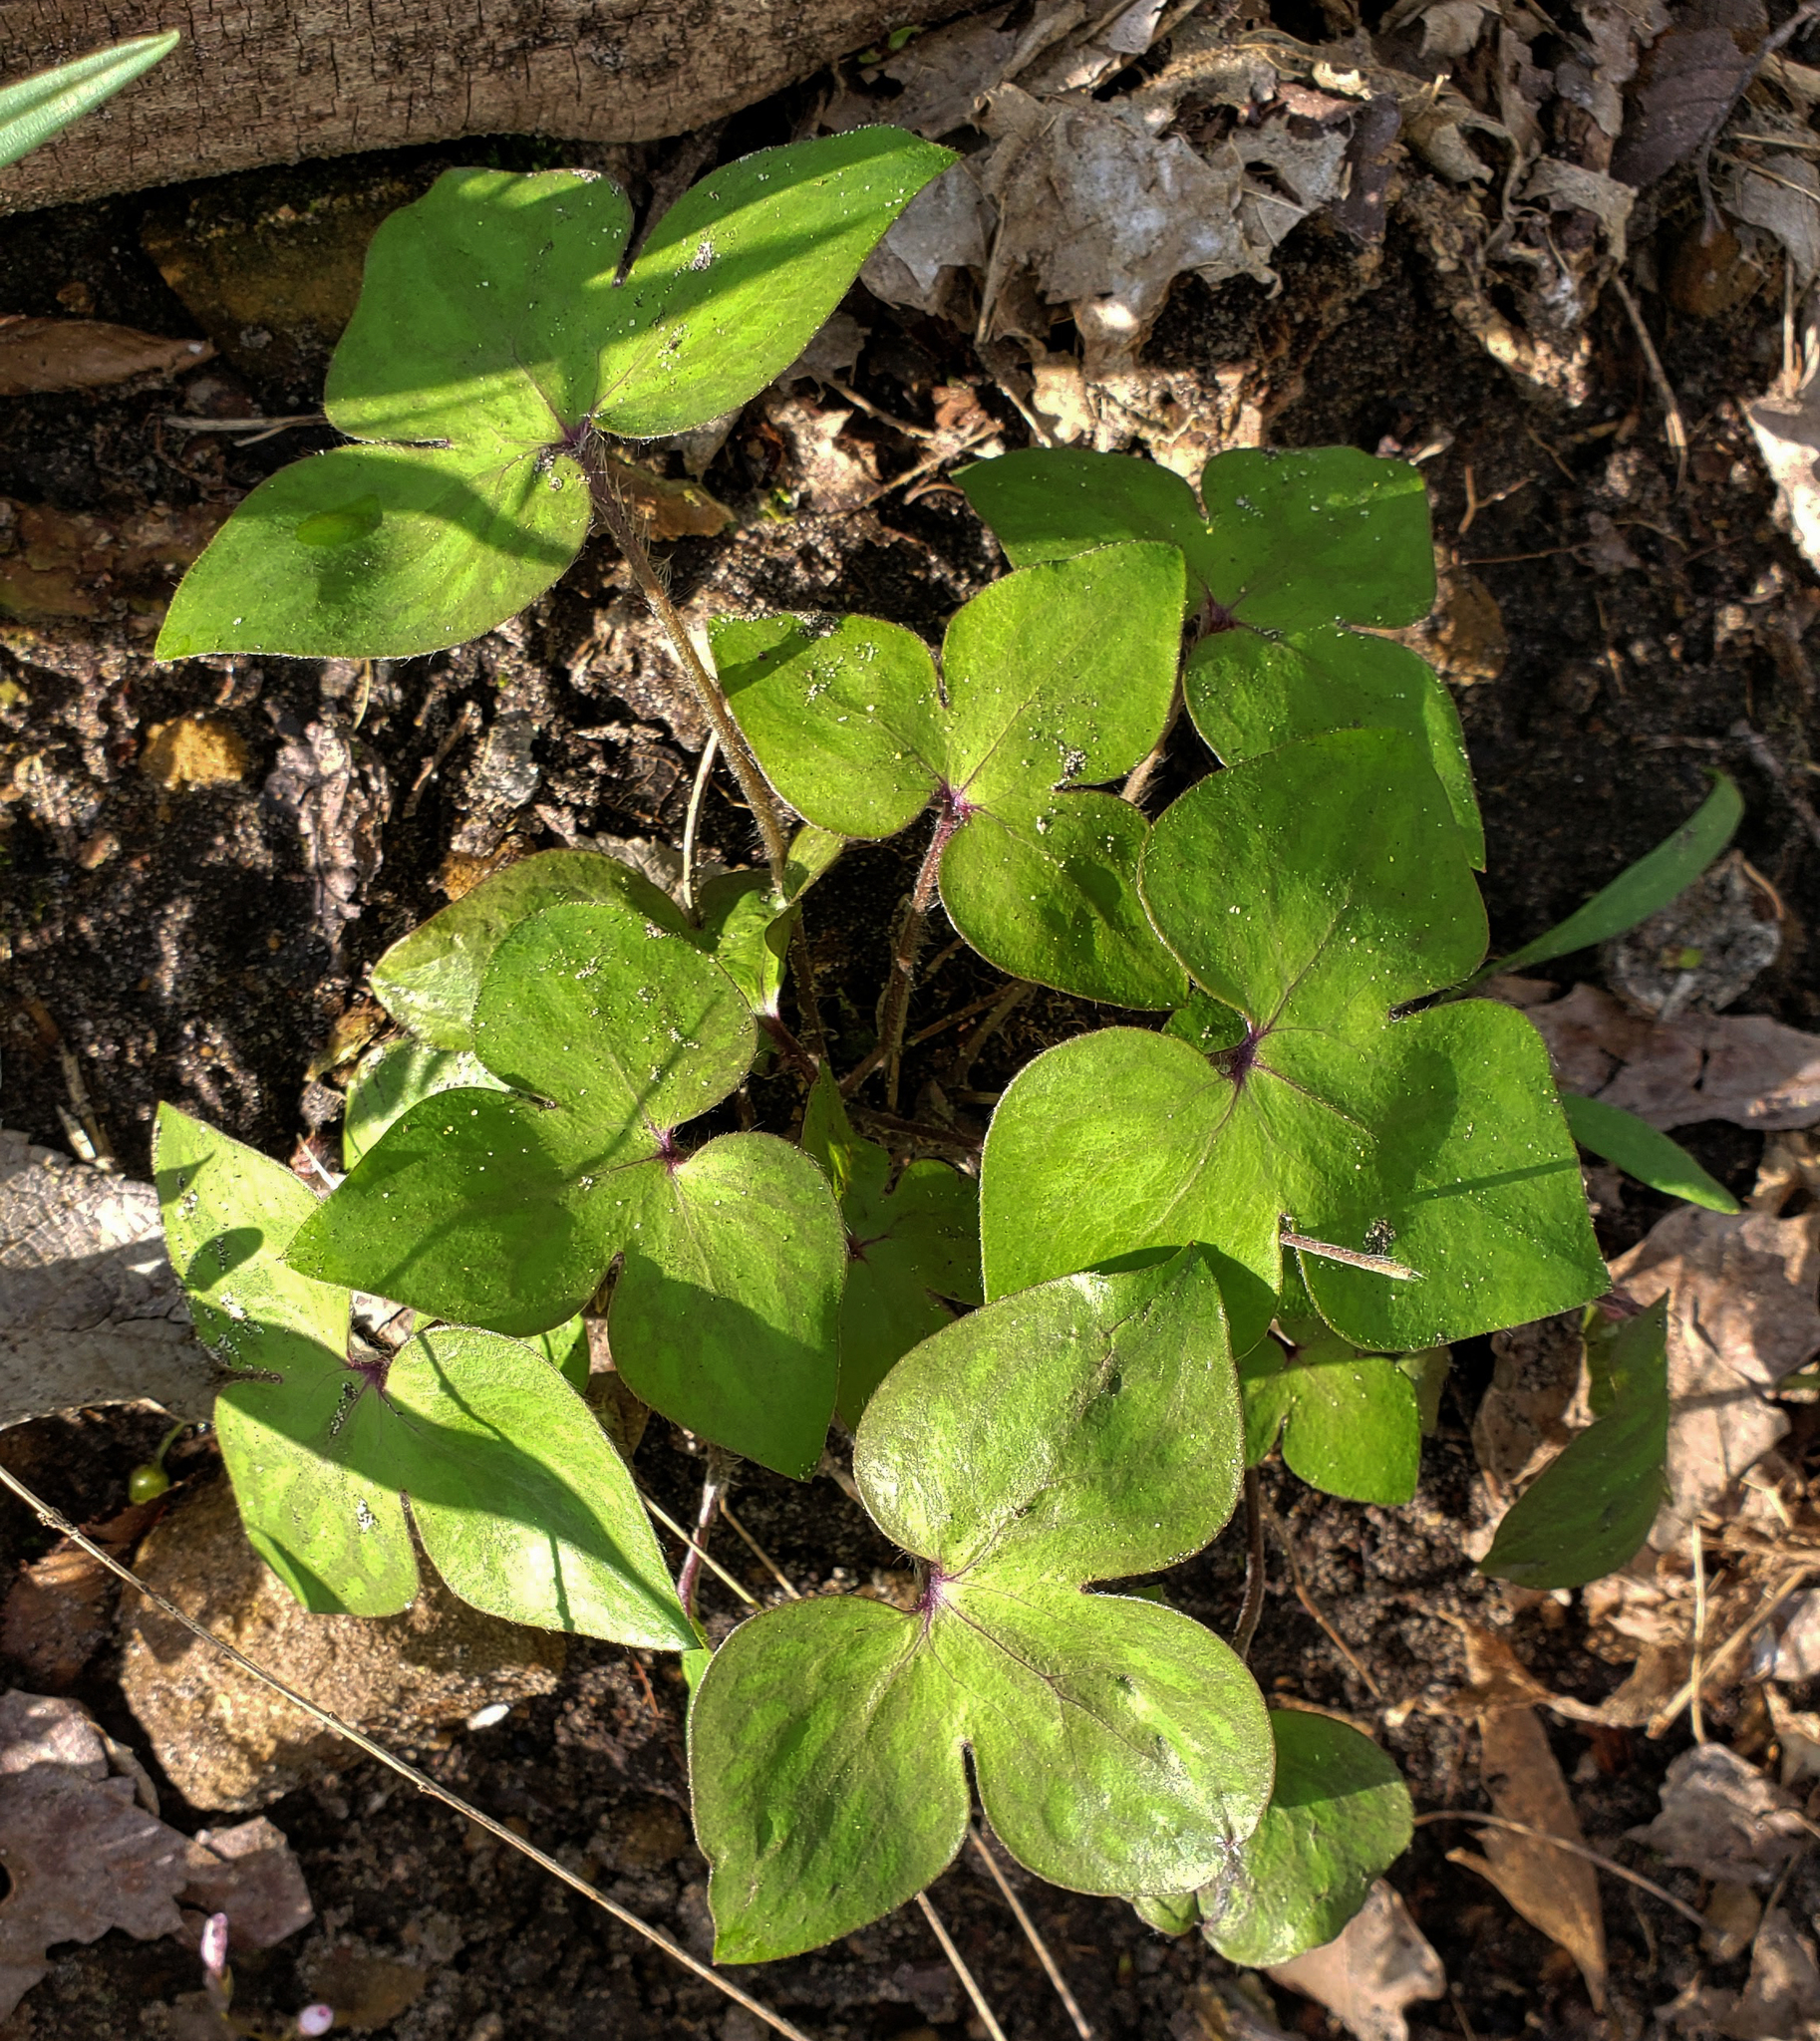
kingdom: Plantae
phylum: Tracheophyta
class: Magnoliopsida
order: Ranunculales
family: Ranunculaceae
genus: Hepatica
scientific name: Hepatica acutiloba
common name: Sharp-lobed hepatica
